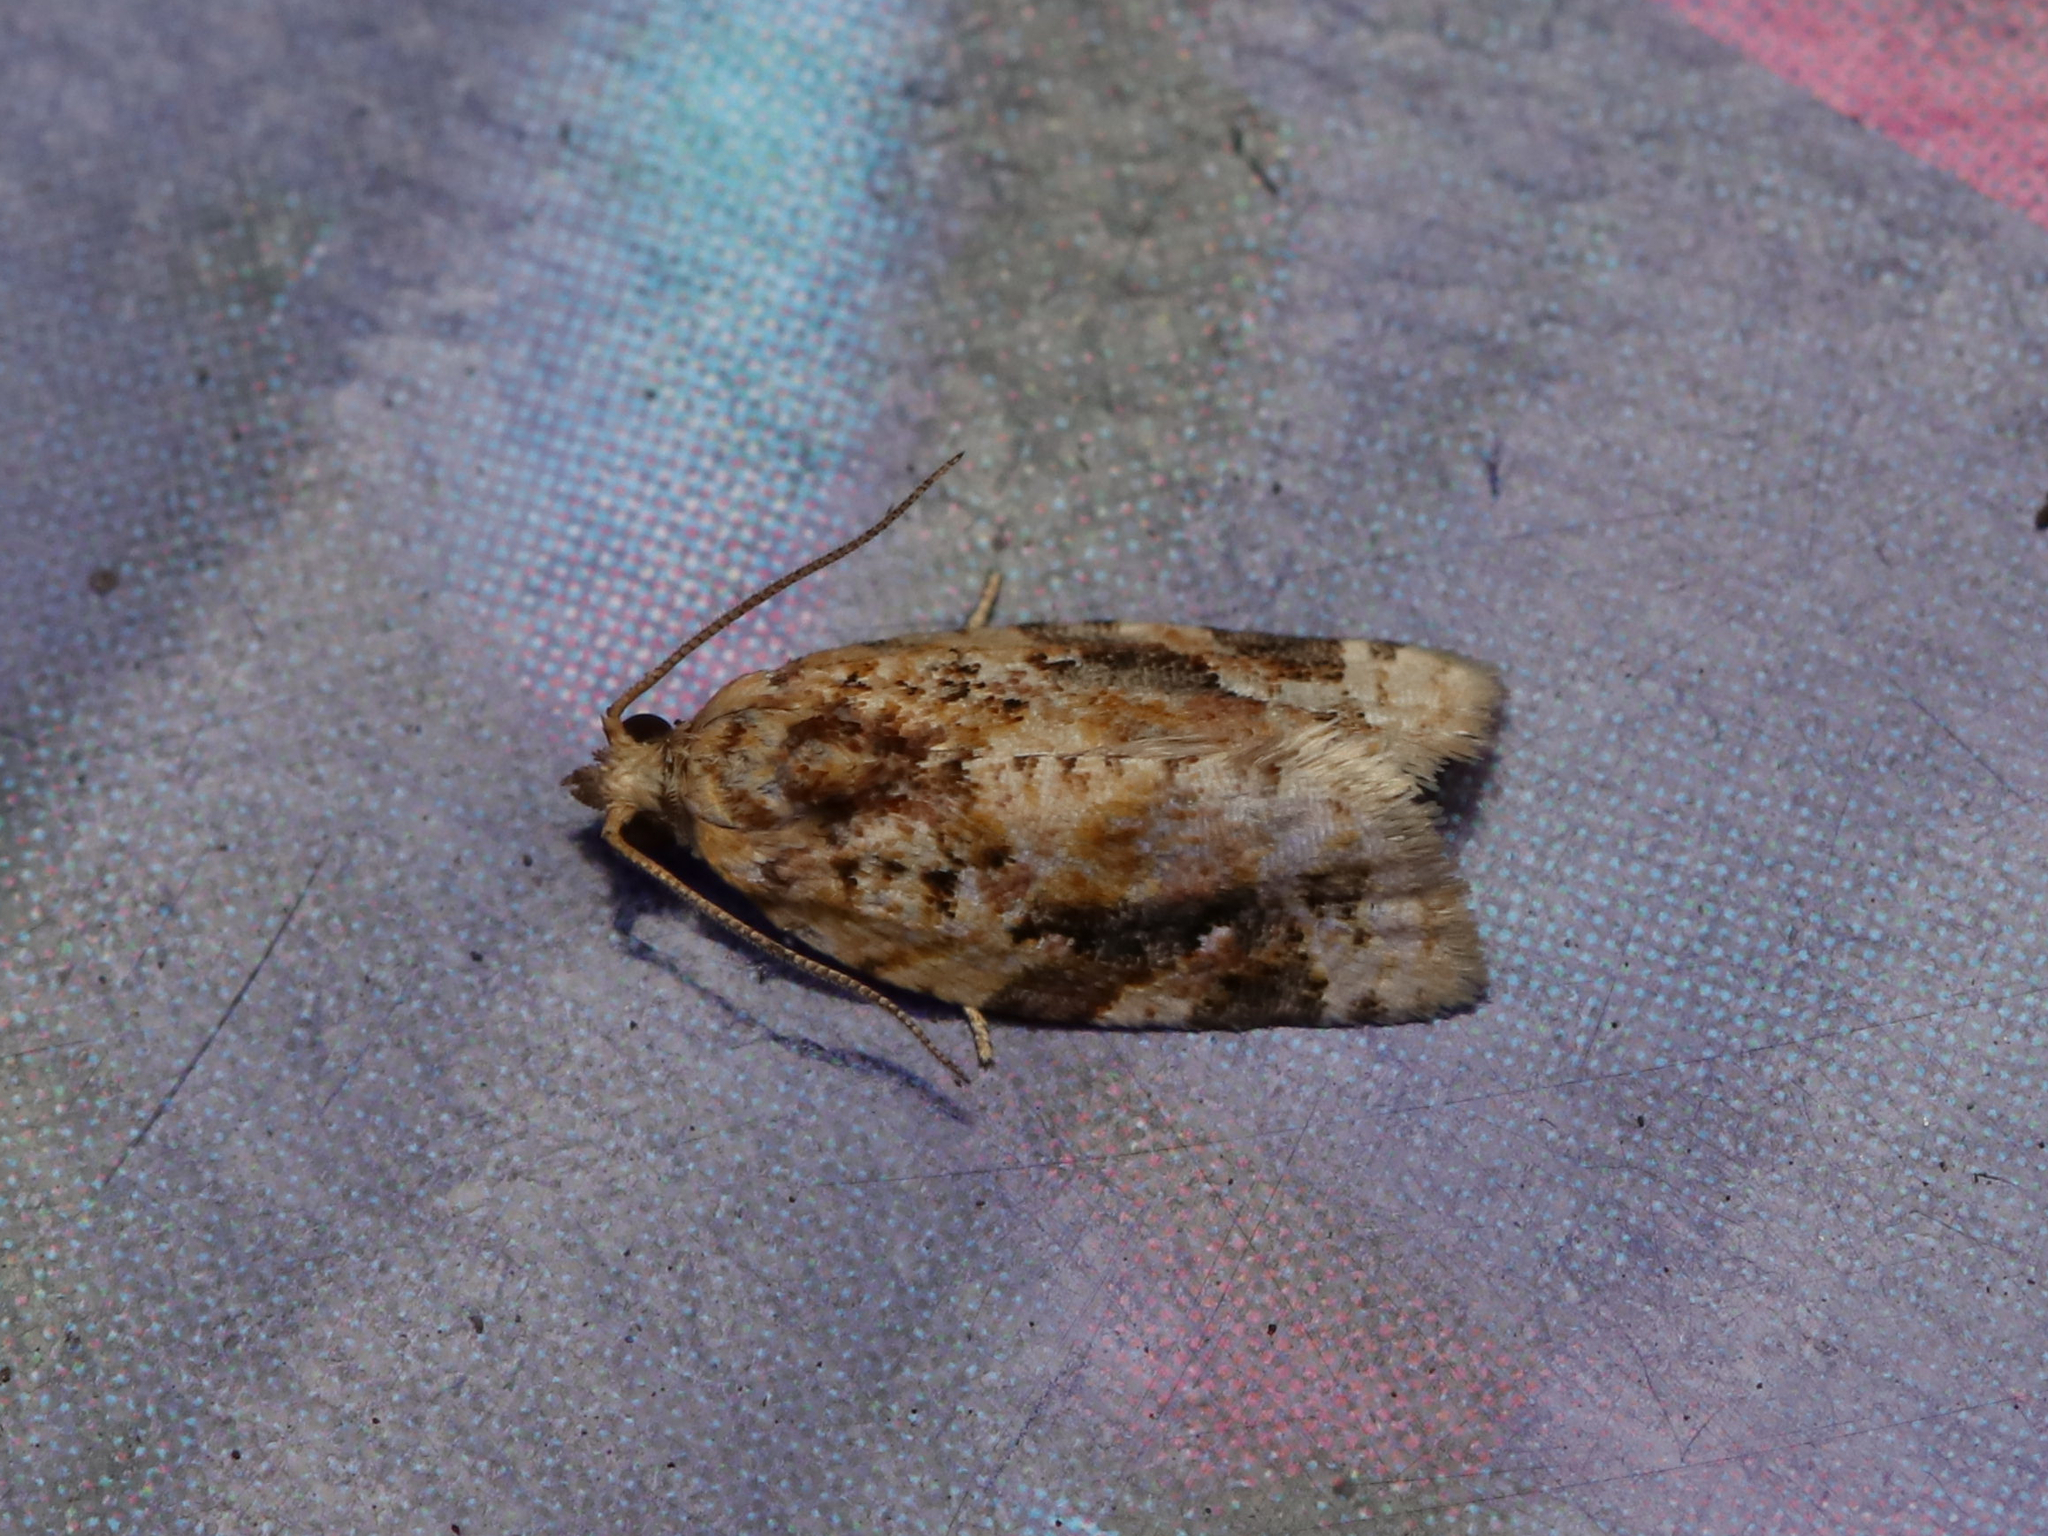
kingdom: Animalia
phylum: Arthropoda
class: Insecta
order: Lepidoptera
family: Tortricidae
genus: Argyrotaenia
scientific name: Argyrotaenia velutinana
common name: Red-banded leafroller moth
